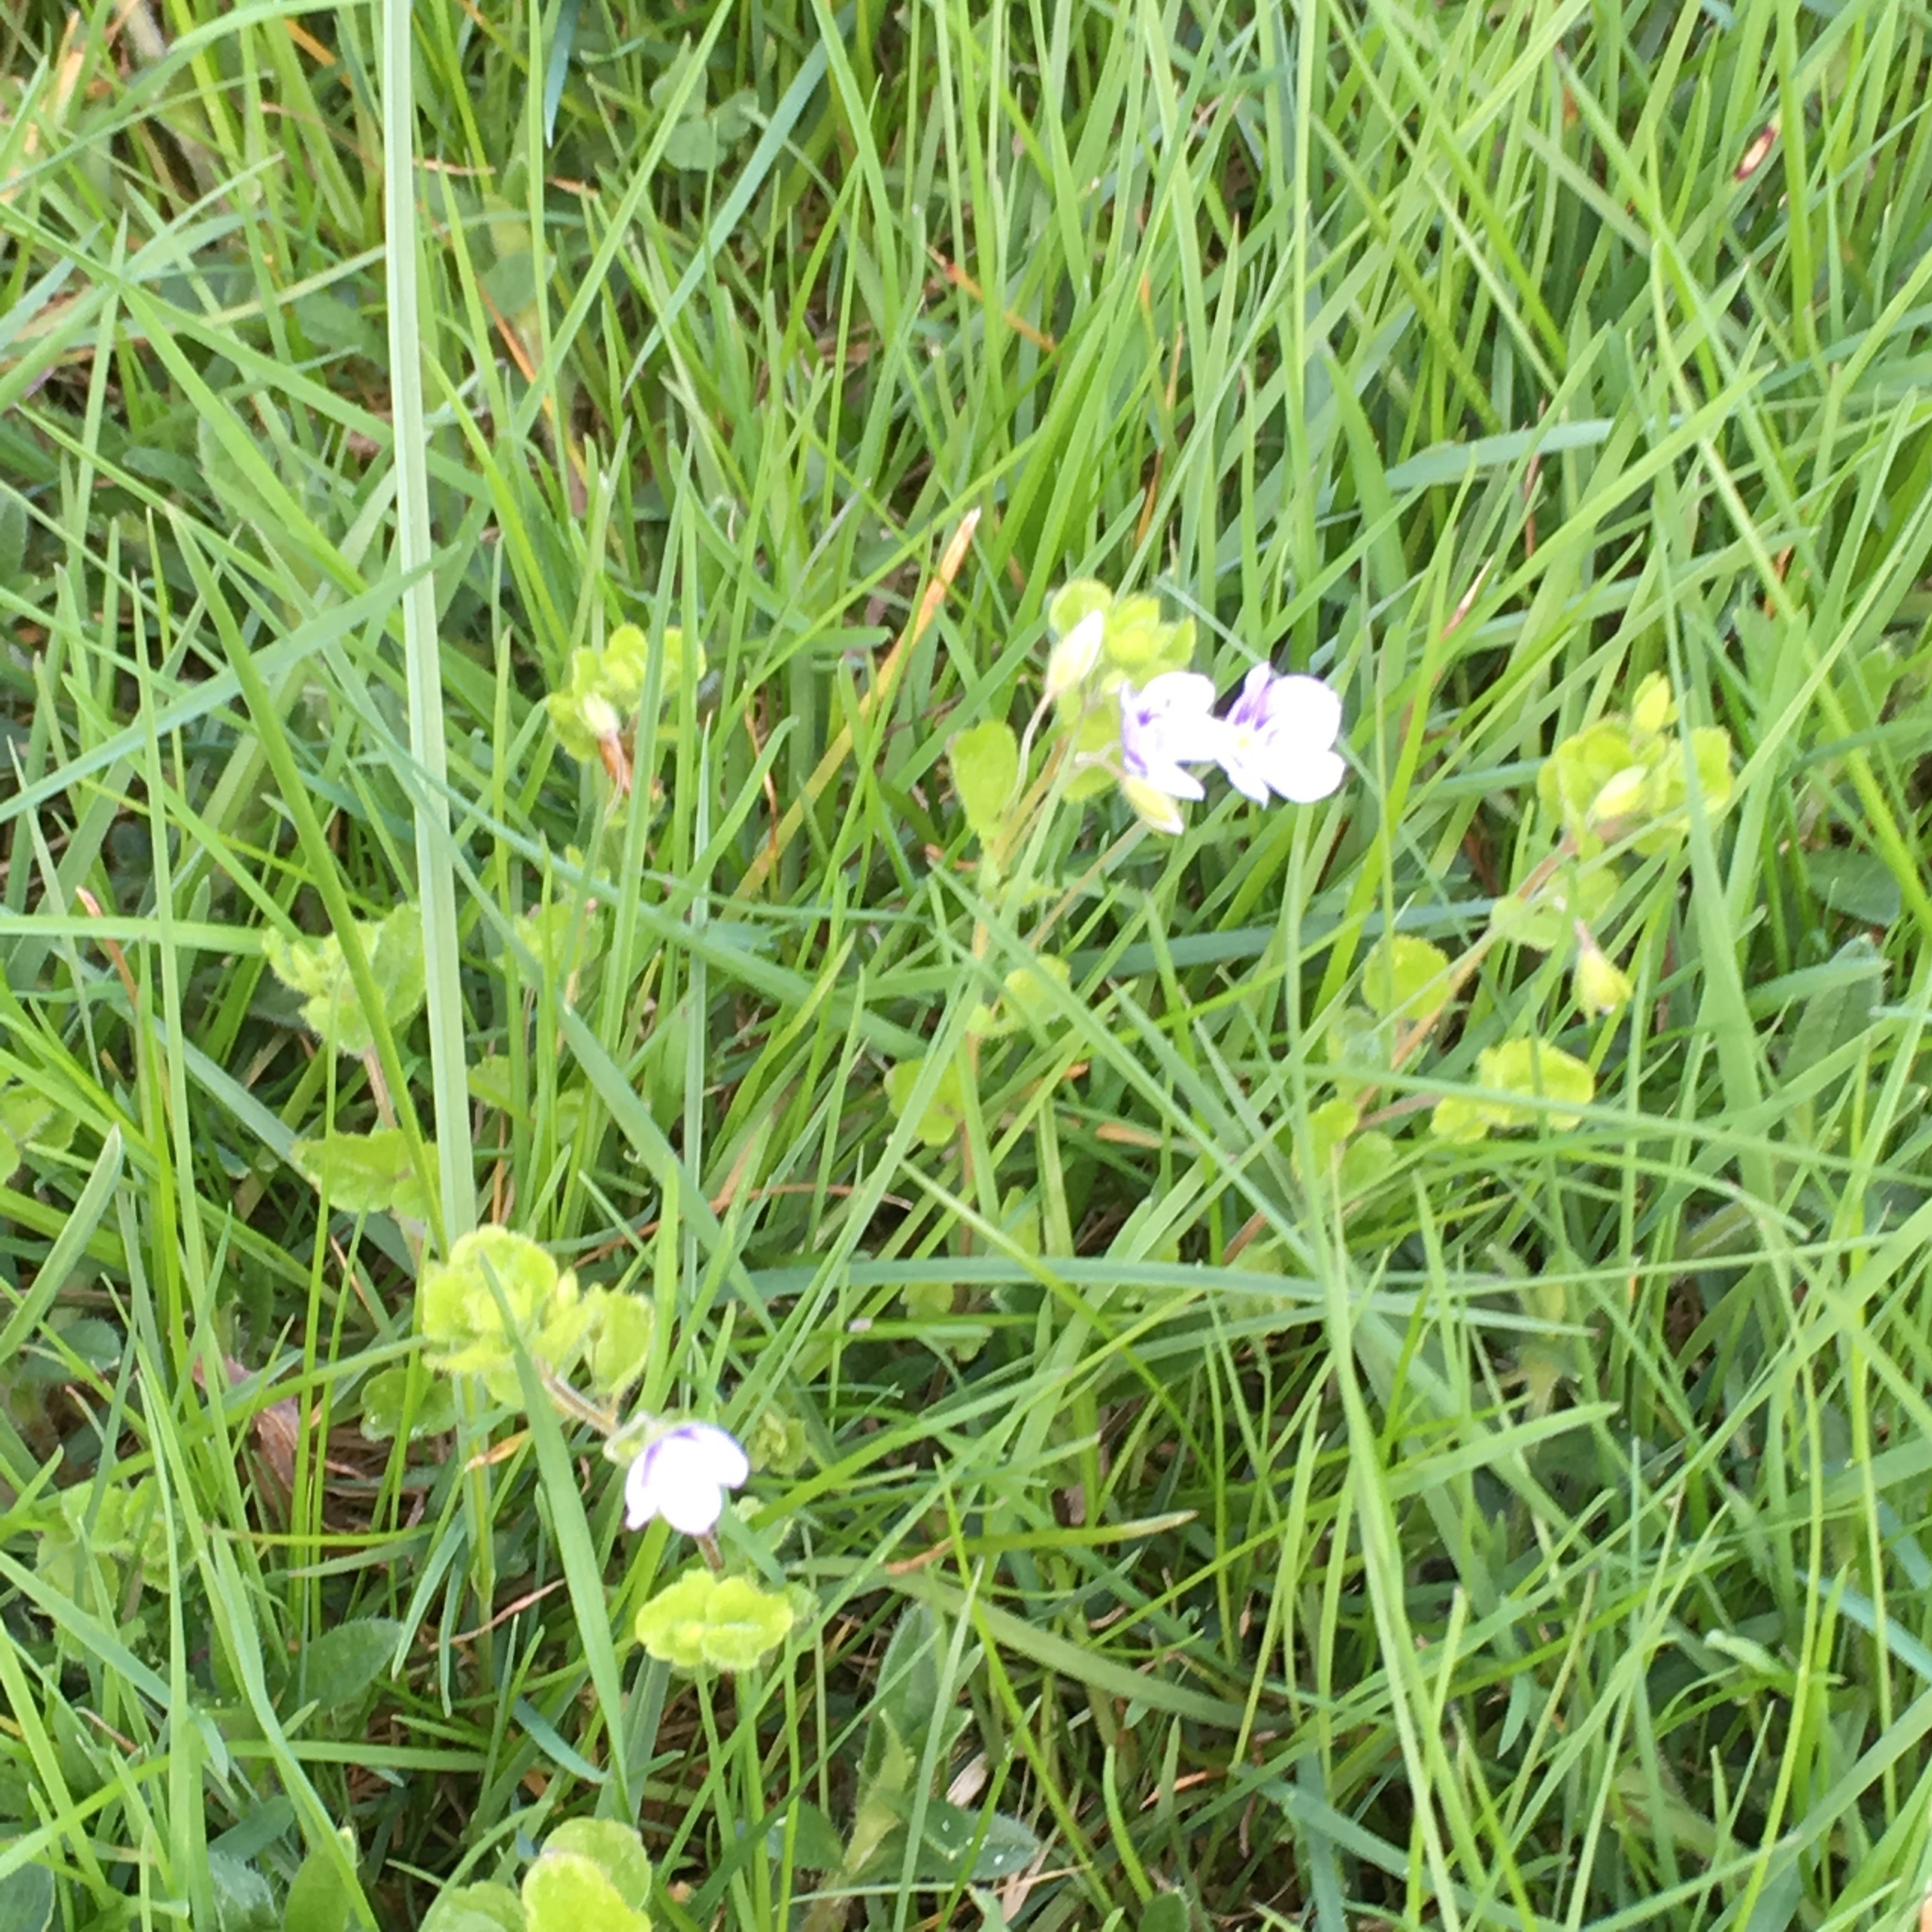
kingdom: Plantae
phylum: Tracheophyta
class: Magnoliopsida
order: Lamiales
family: Plantaginaceae
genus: Veronica
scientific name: Veronica filiformis
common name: Slender speedwell
